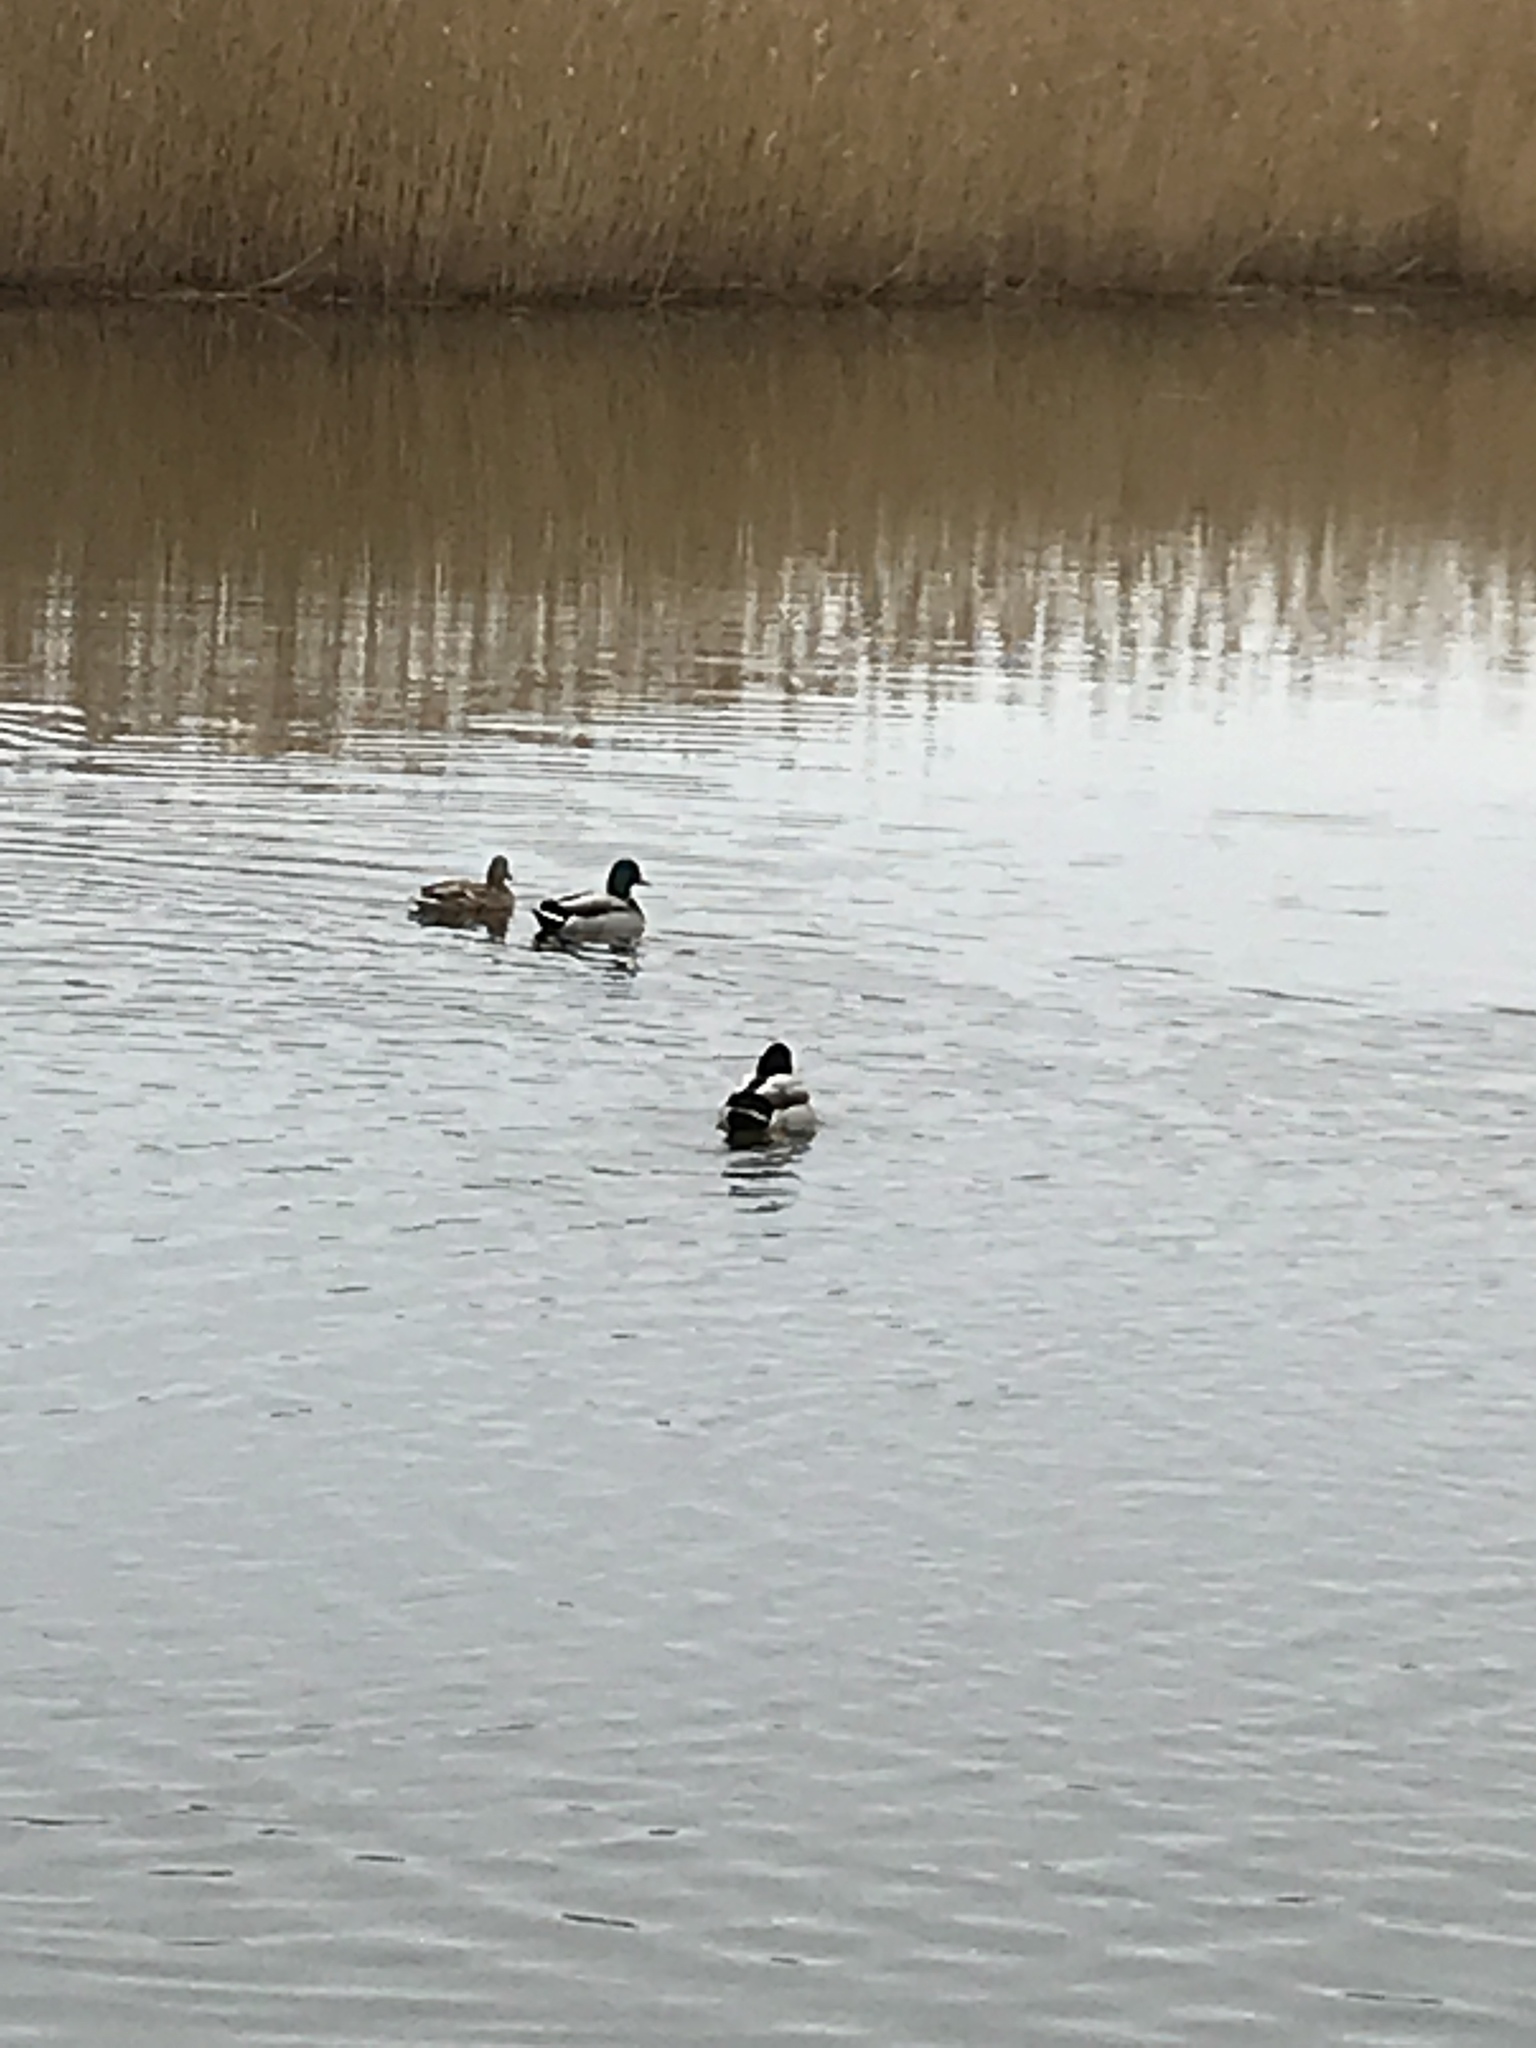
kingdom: Animalia
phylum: Chordata
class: Aves
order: Anseriformes
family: Anatidae
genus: Anas
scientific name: Anas platyrhynchos
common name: Mallard
